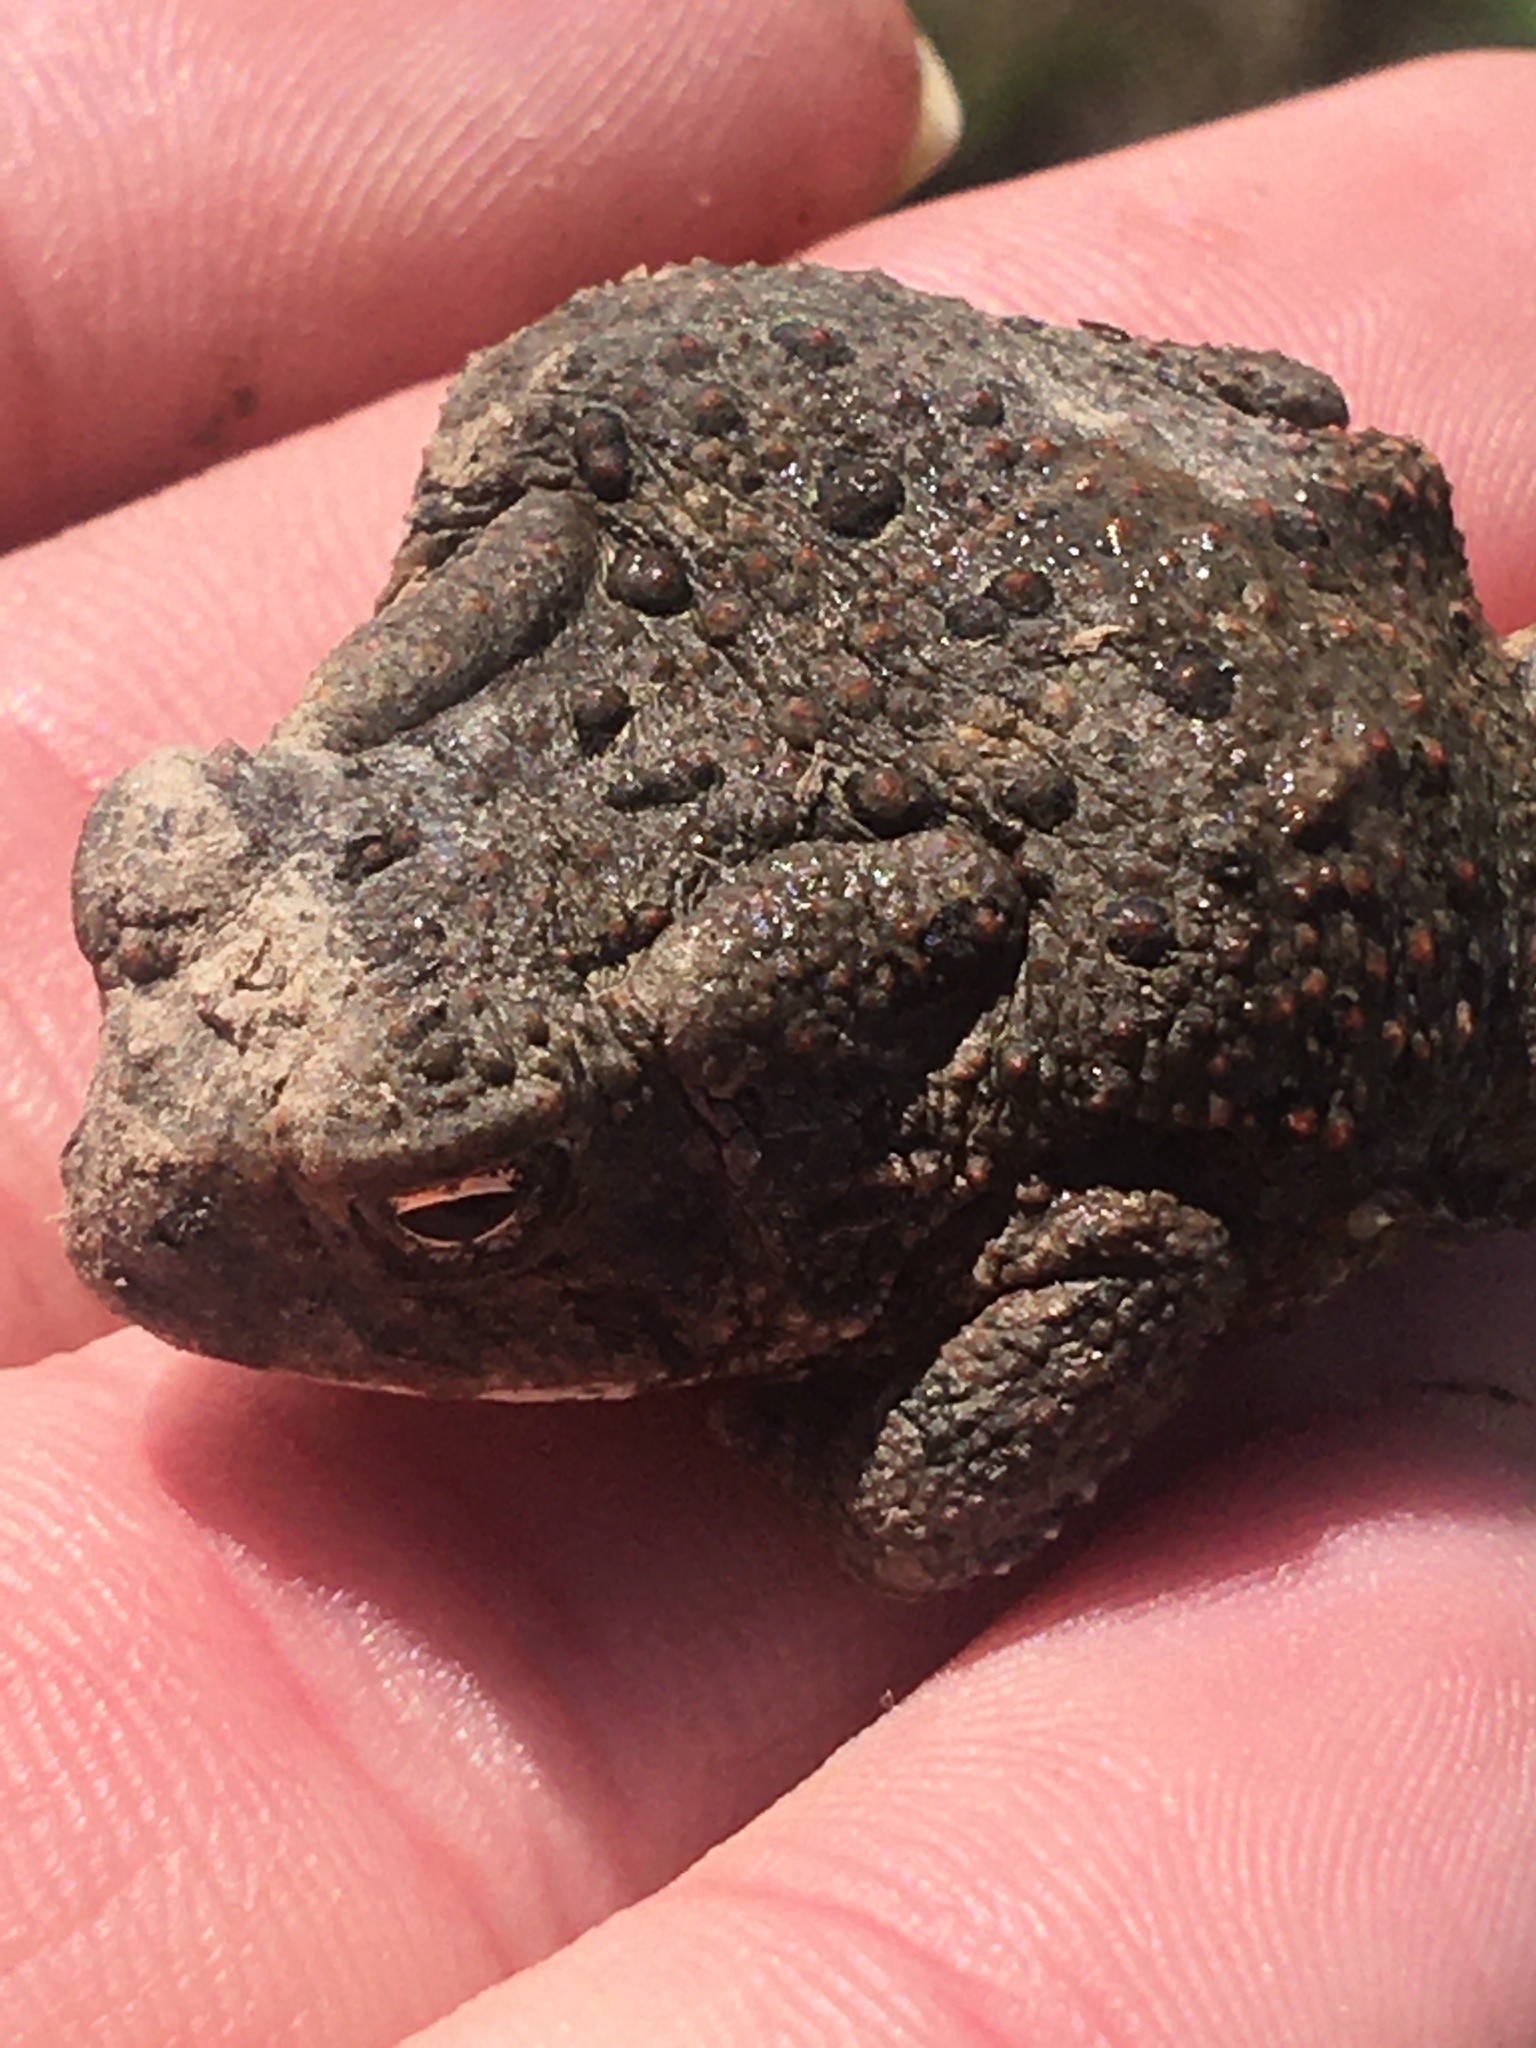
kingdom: Animalia
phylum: Chordata
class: Amphibia
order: Anura
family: Bufonidae
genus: Anaxyrus
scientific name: Anaxyrus americanus
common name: American toad
